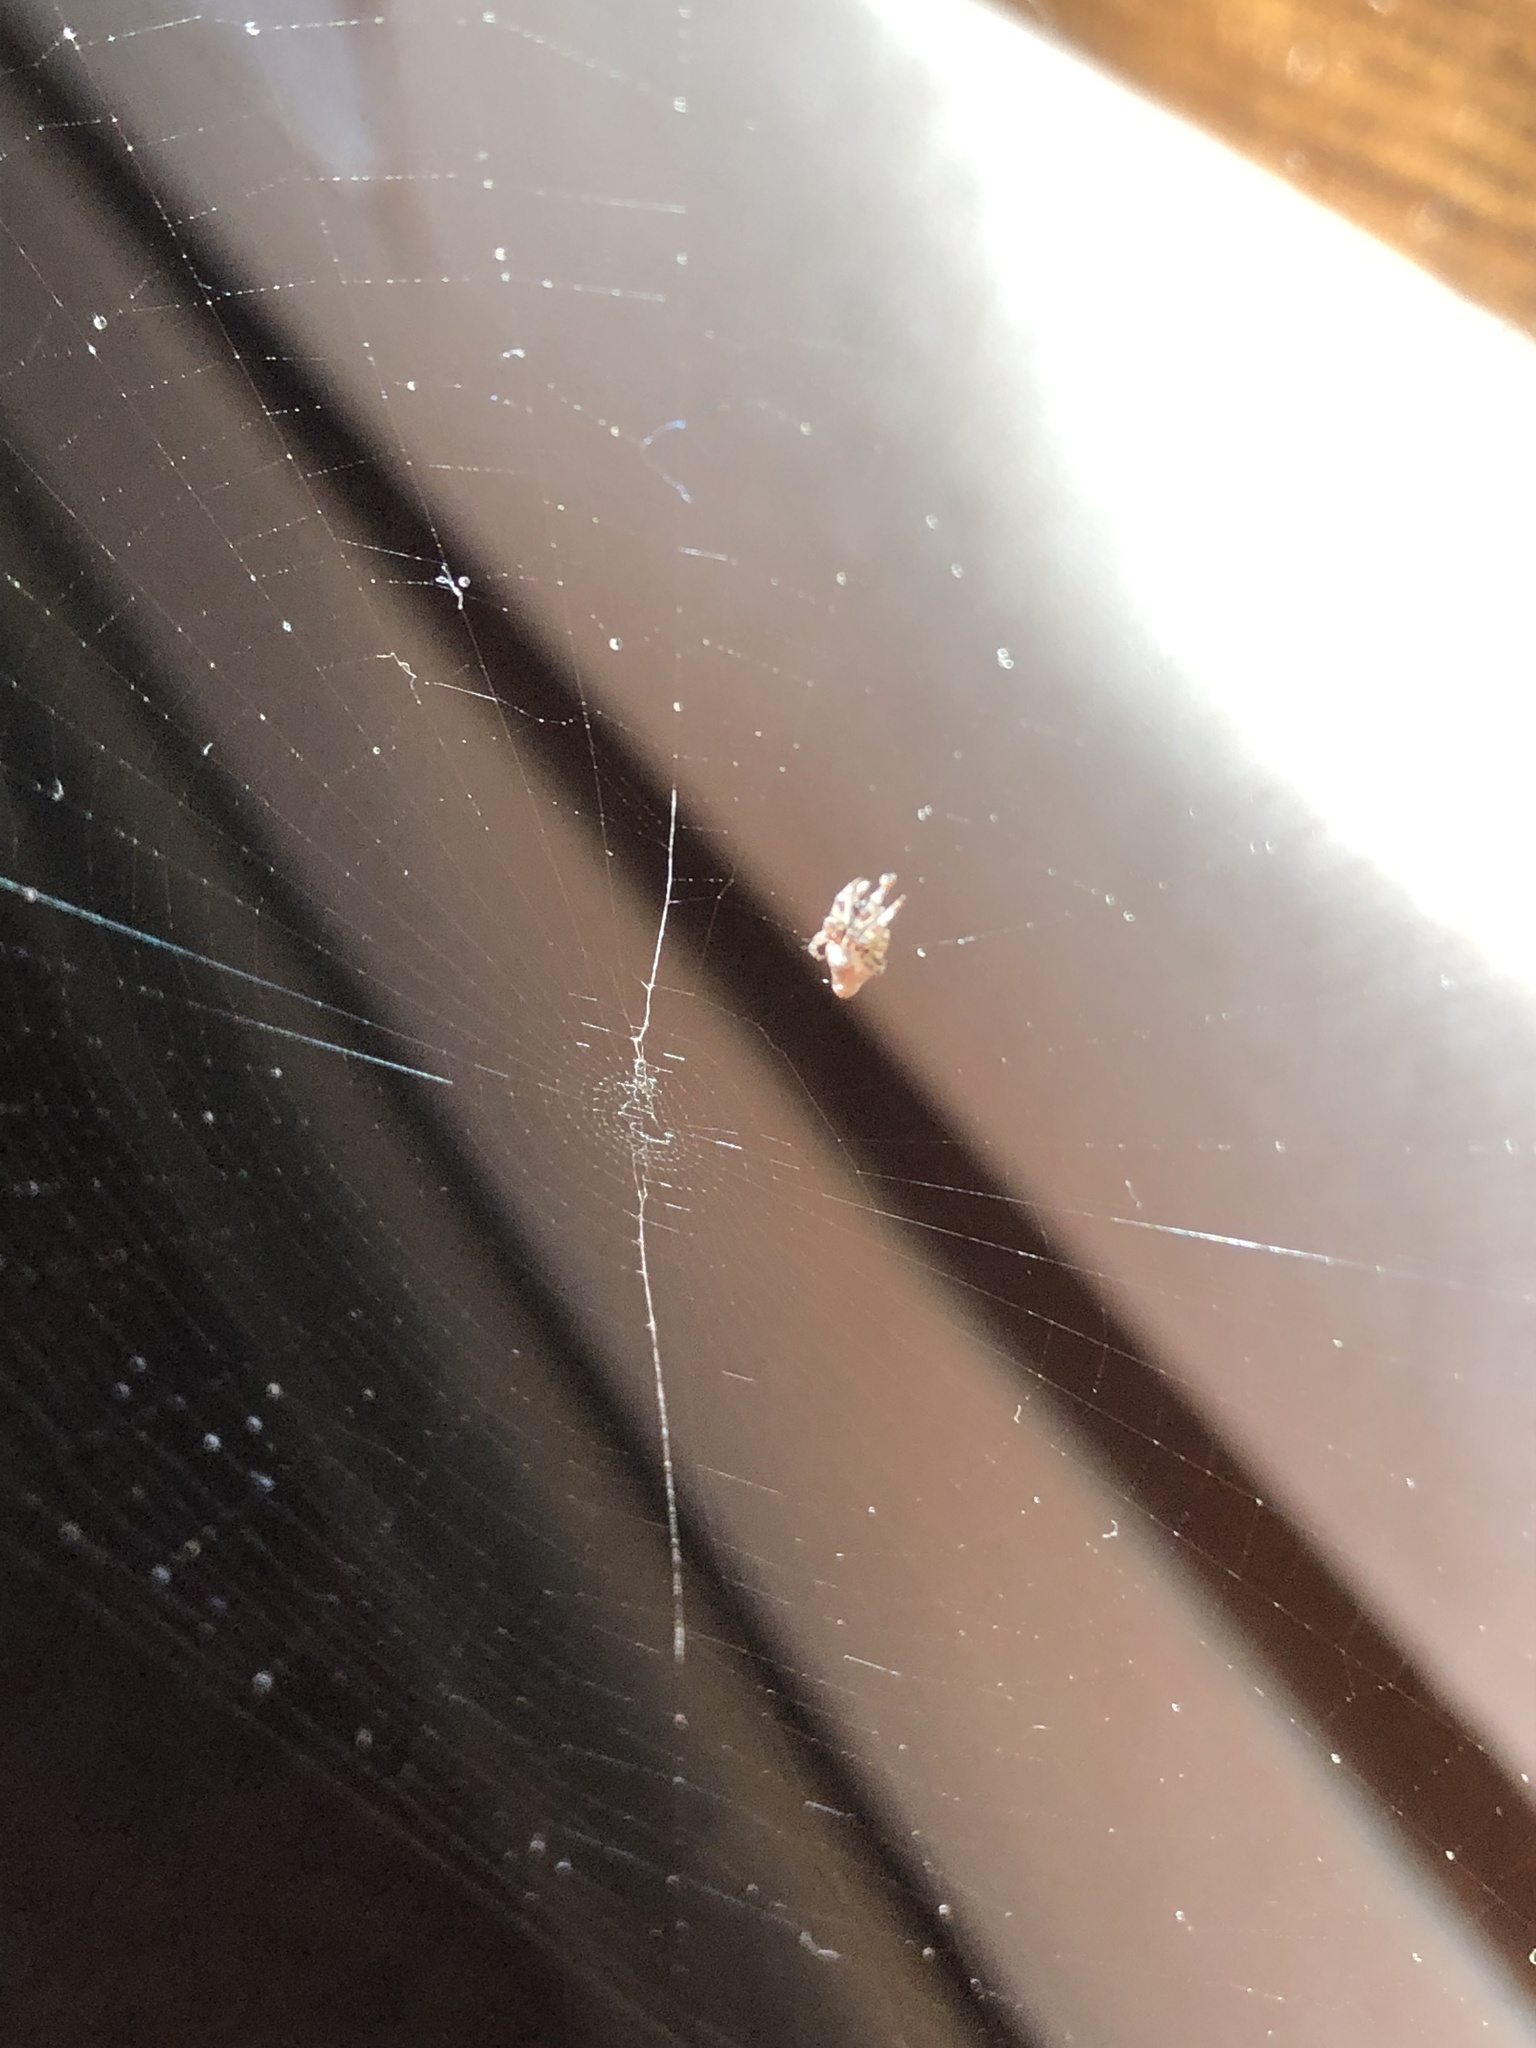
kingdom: Animalia
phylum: Arthropoda
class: Arachnida
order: Araneae
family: Araneidae
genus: Cyclosa
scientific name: Cyclosa conica
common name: Conical trashline orbweaver
